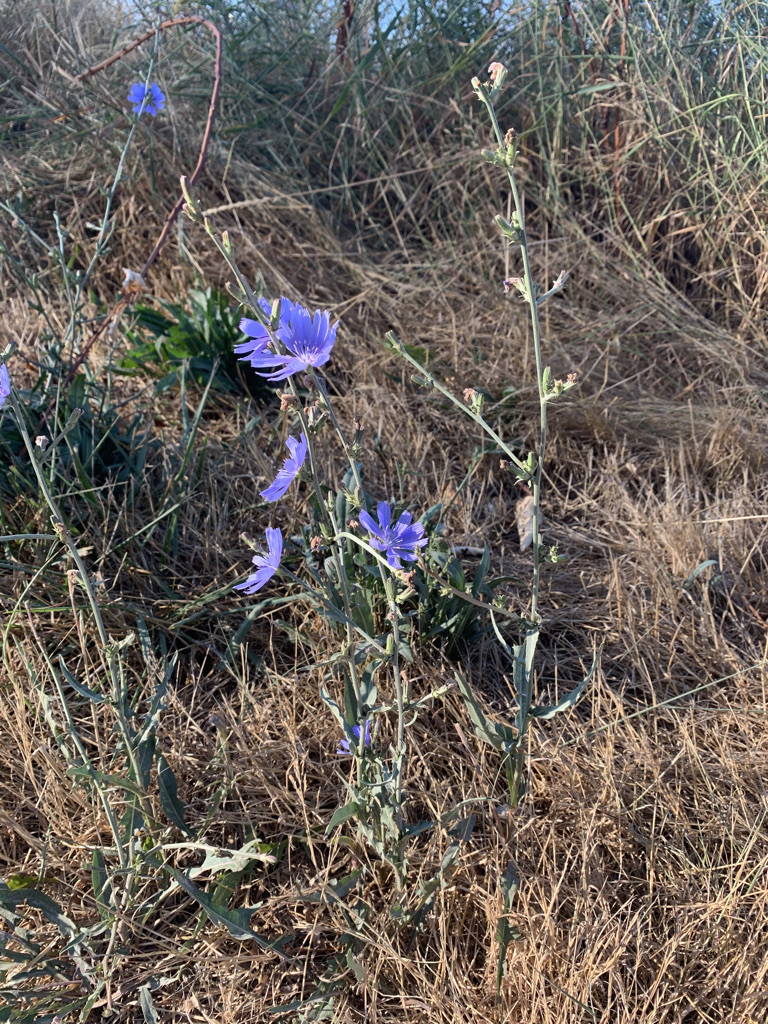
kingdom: Plantae
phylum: Tracheophyta
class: Magnoliopsida
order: Asterales
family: Asteraceae
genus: Cichorium
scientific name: Cichorium intybus
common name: Chicory
